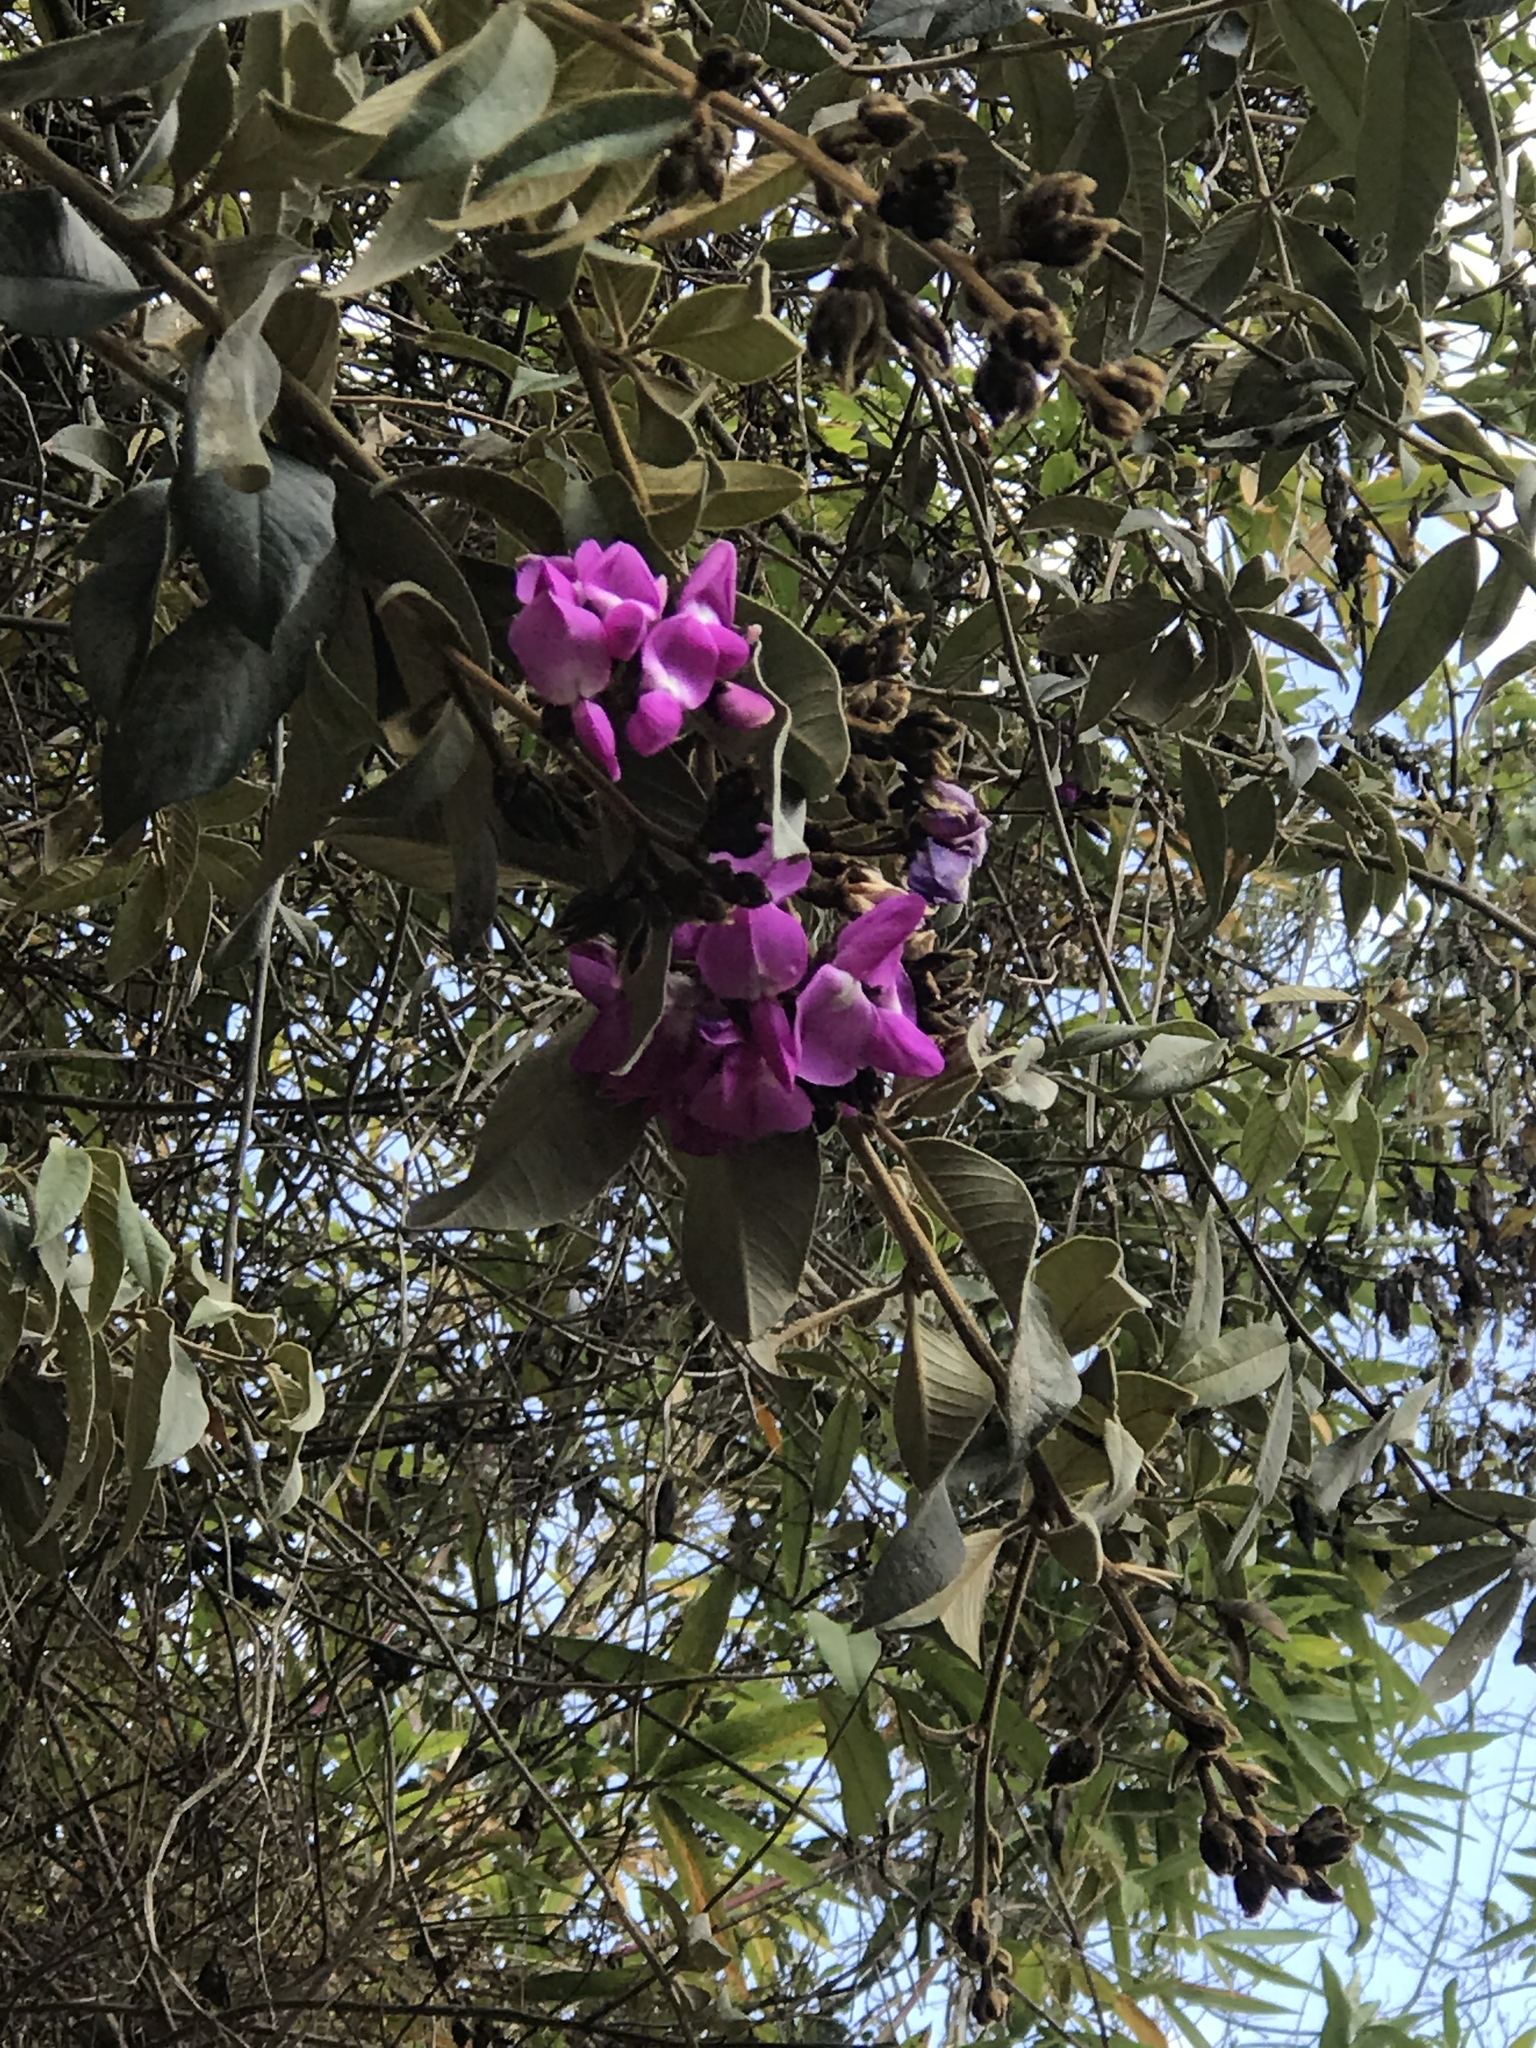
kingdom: Plantae
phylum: Tracheophyta
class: Magnoliopsida
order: Fabales
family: Fabaceae
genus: Collaea
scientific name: Collaea speciosa
